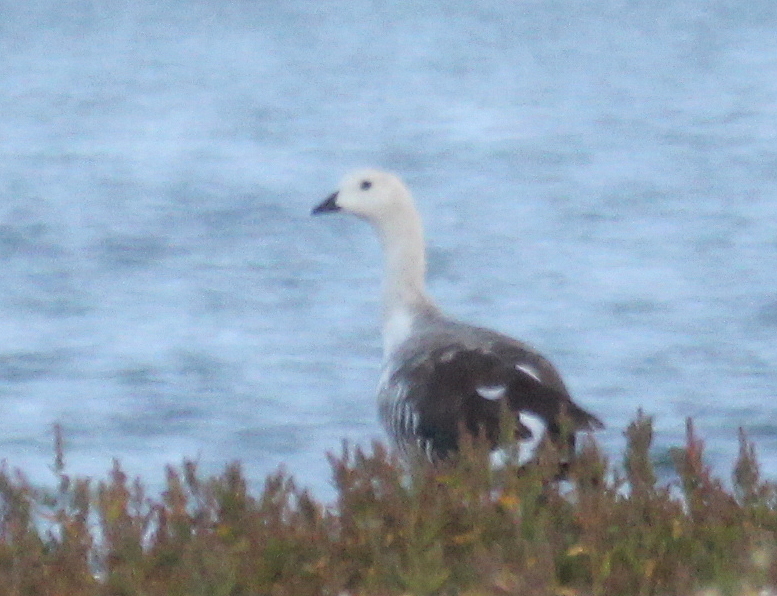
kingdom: Animalia
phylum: Chordata
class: Aves
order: Anseriformes
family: Anatidae
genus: Chloephaga
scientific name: Chloephaga picta
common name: Upland goose
